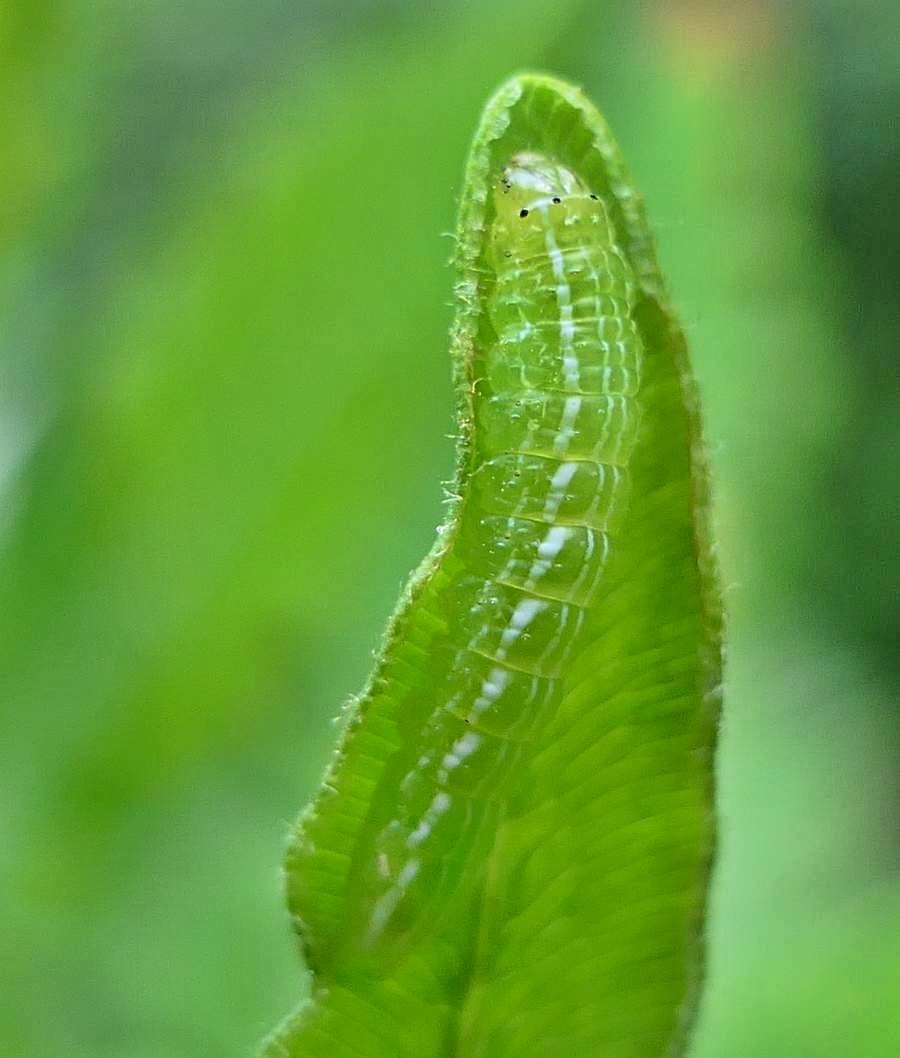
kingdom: Animalia
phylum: Arthropoda
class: Insecta
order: Lepidoptera
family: Noctuidae
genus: Callopistria
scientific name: Callopistria cordata
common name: Silver-spotted fern moth
